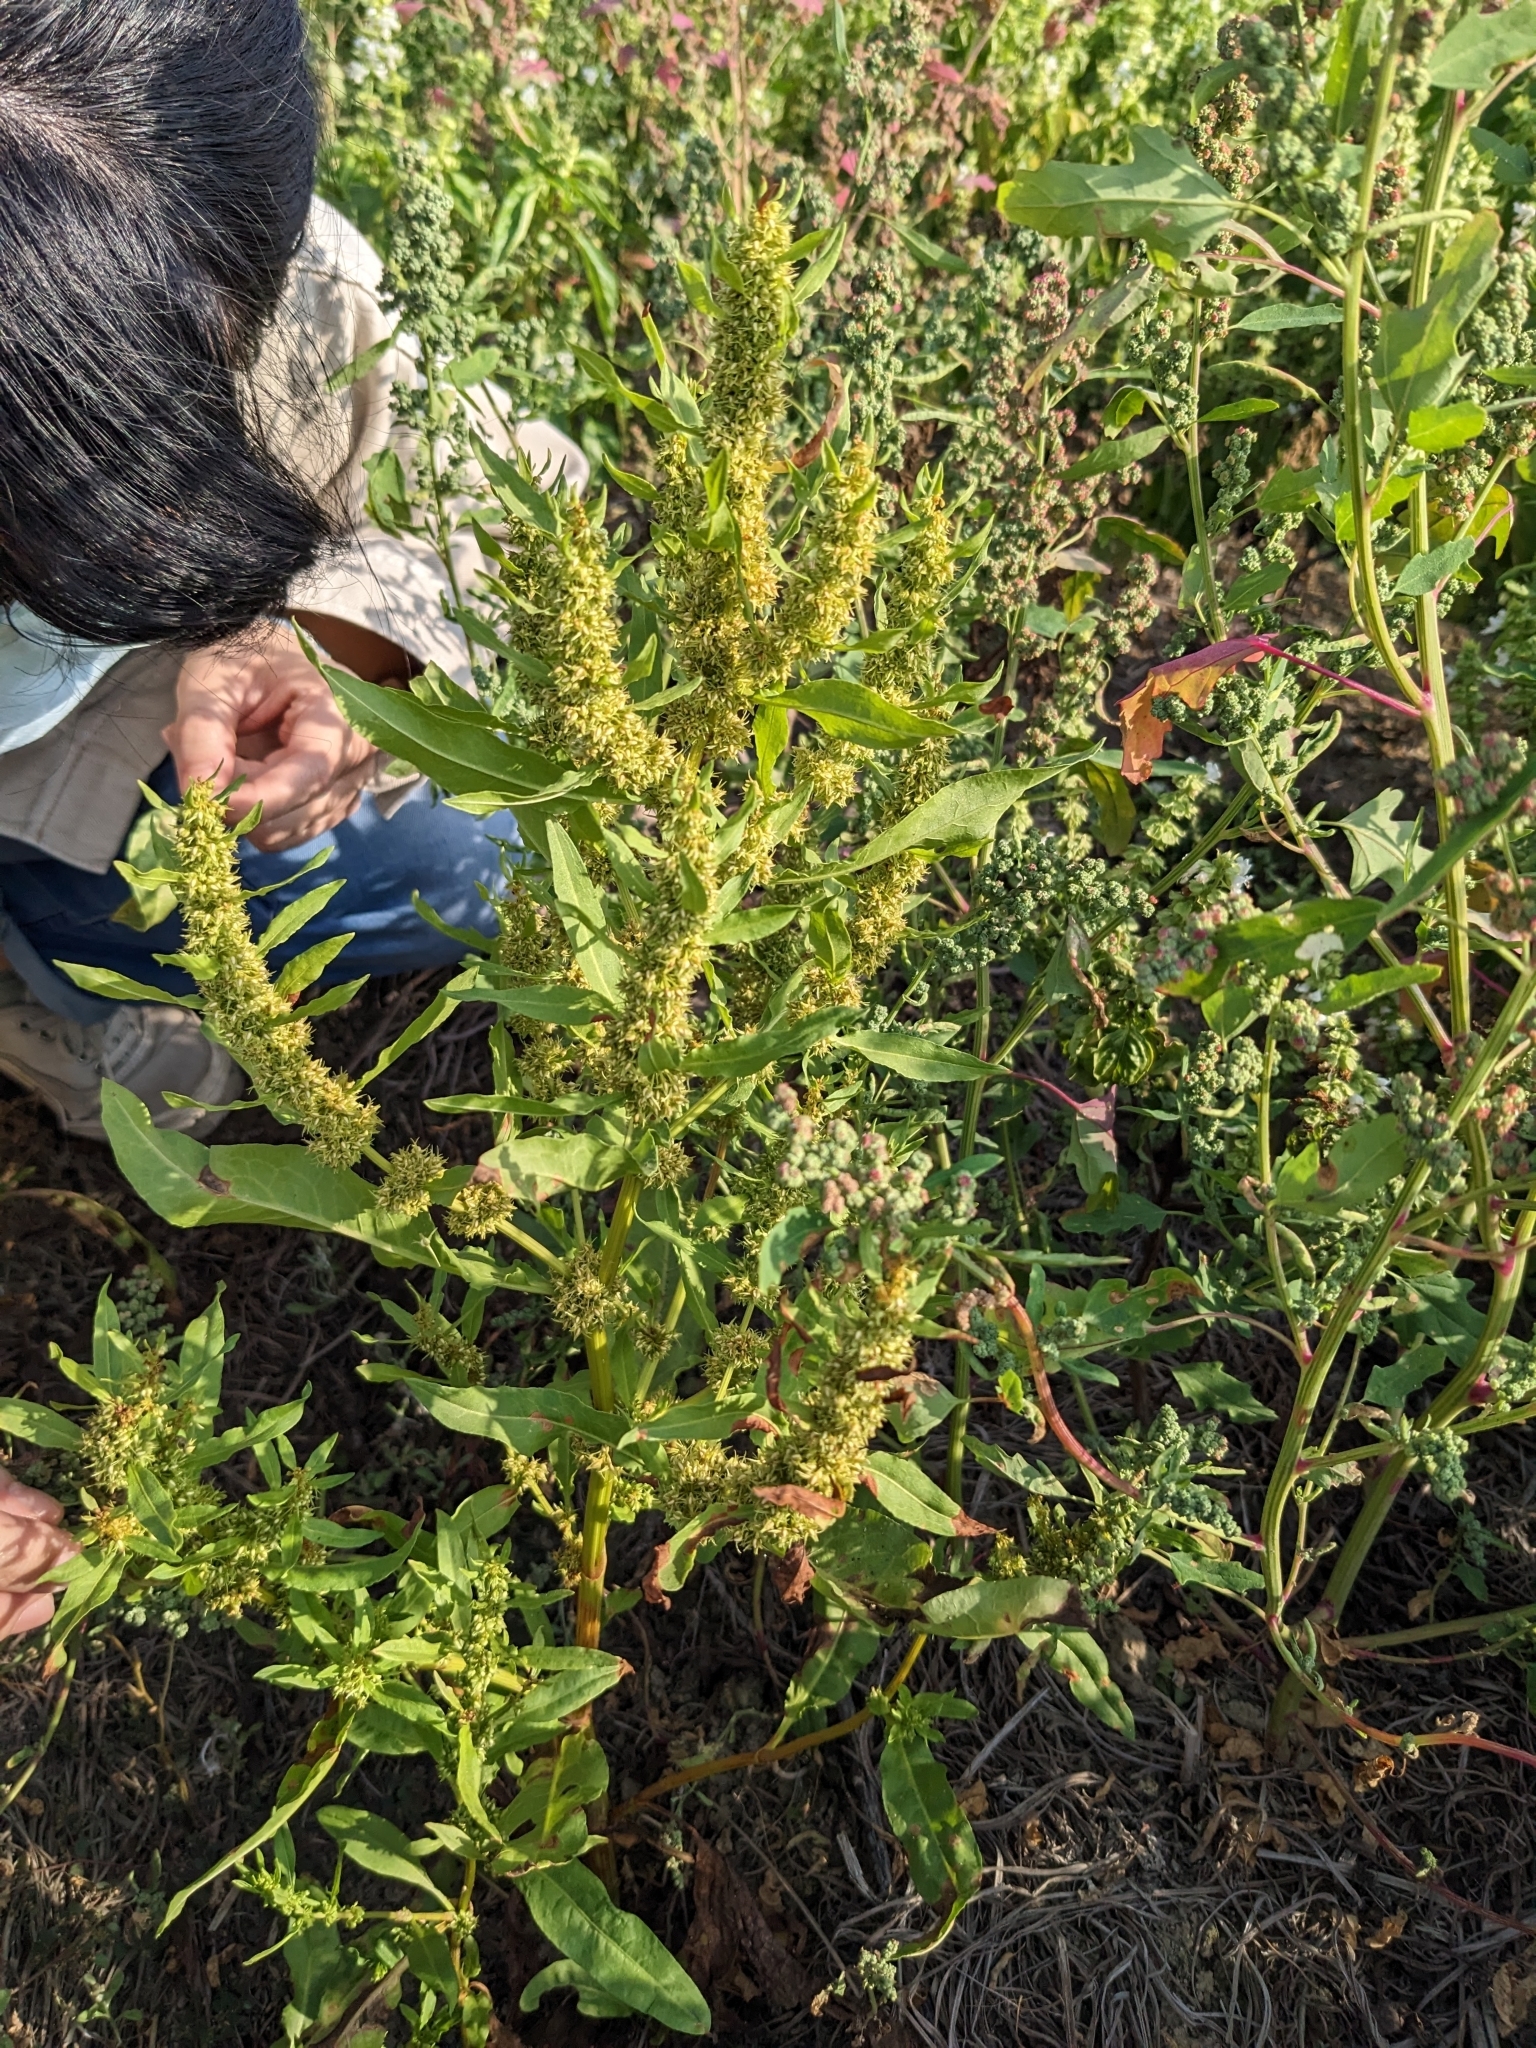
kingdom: Plantae
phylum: Tracheophyta
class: Magnoliopsida
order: Caryophyllales
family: Polygonaceae
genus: Rumex
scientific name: Rumex trisetifer
